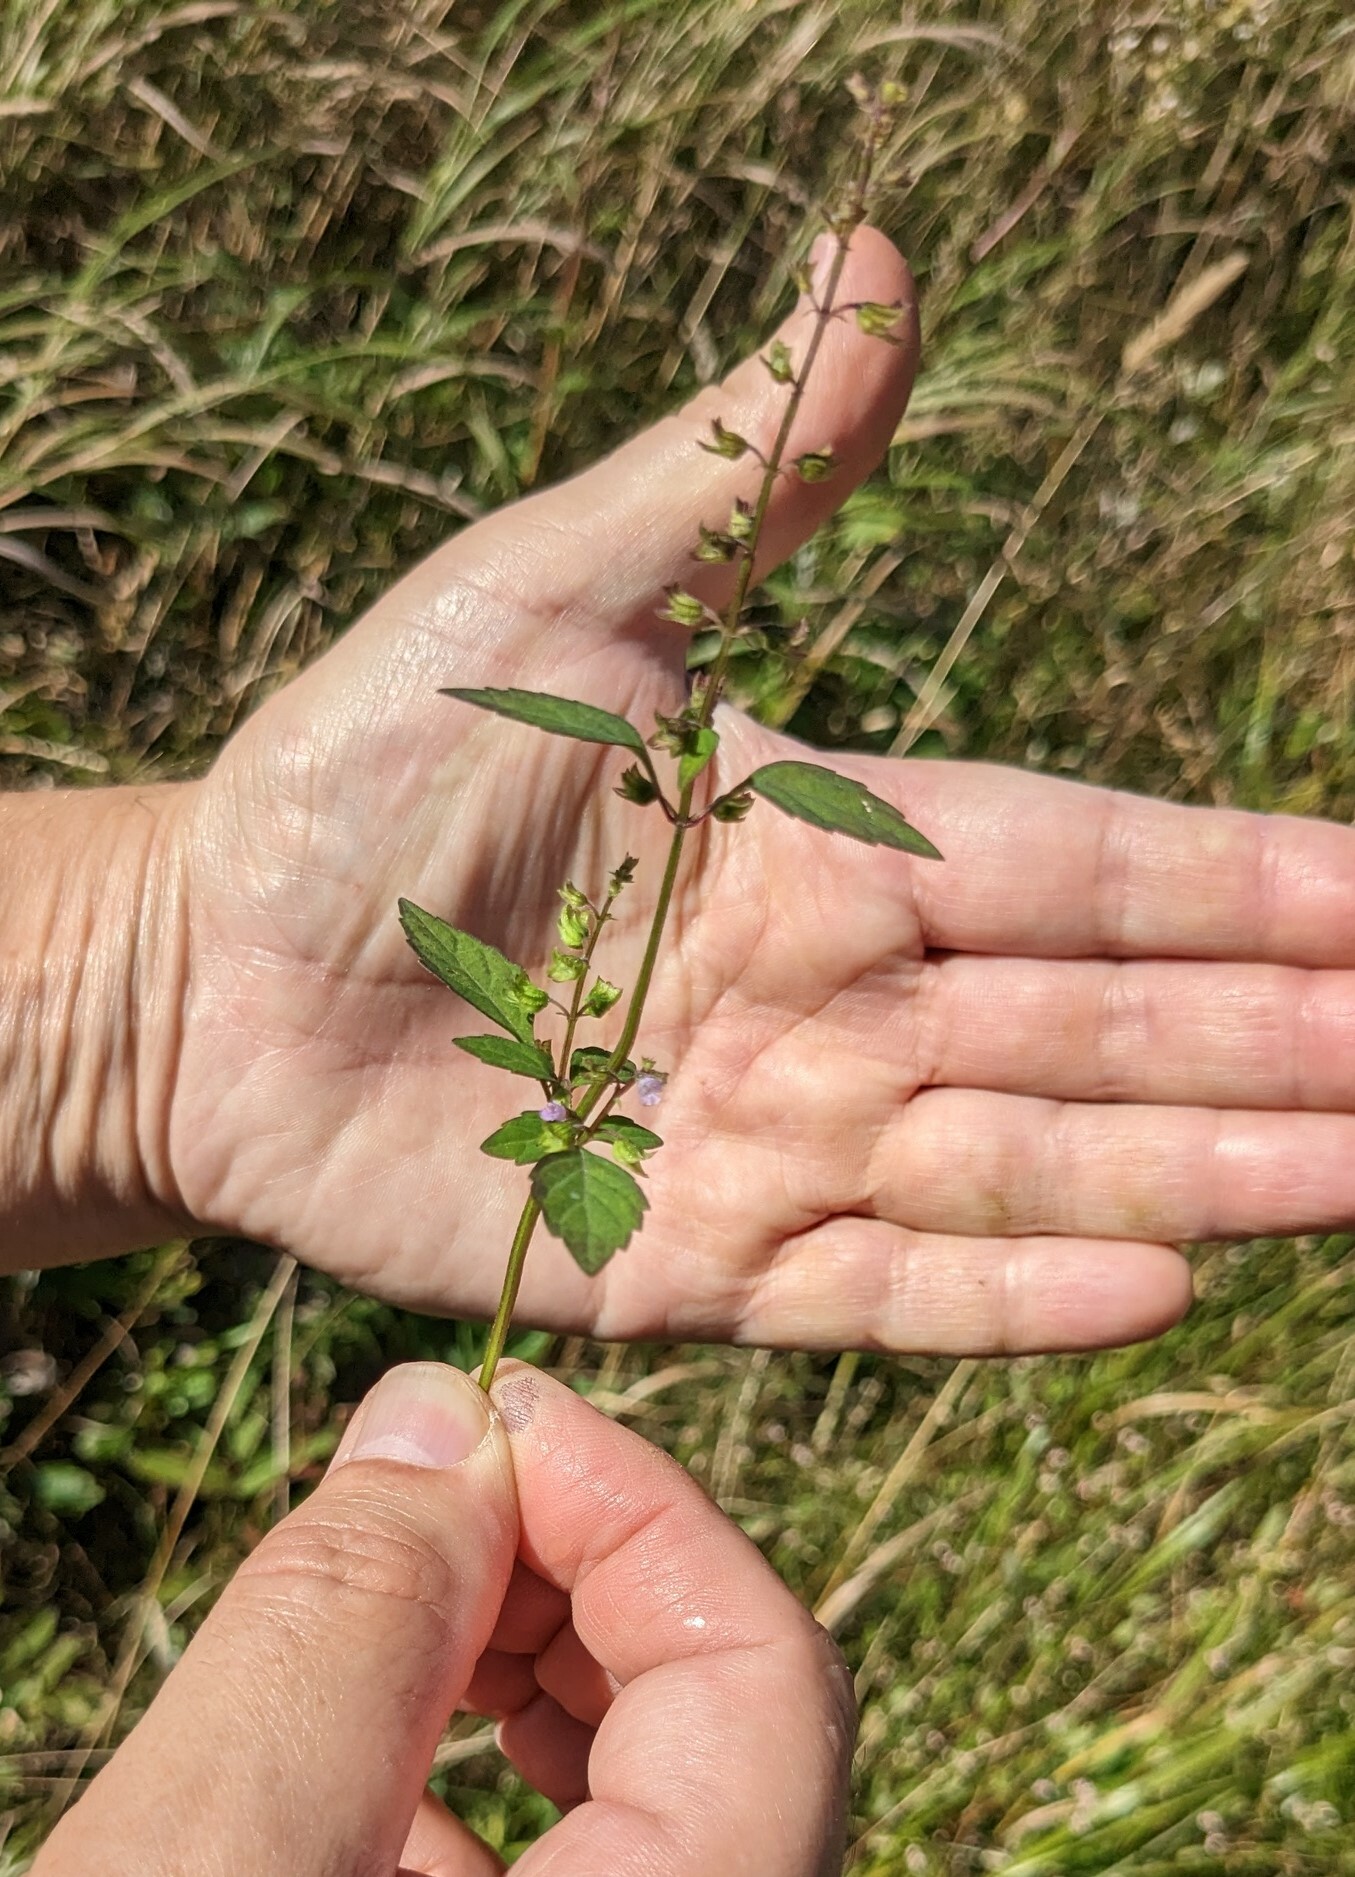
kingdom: Plantae
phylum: Tracheophyta
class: Magnoliopsida
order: Lamiales
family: Lamiaceae
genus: Mosla
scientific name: Mosla dianthera
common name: Miniature beefsteakplant
